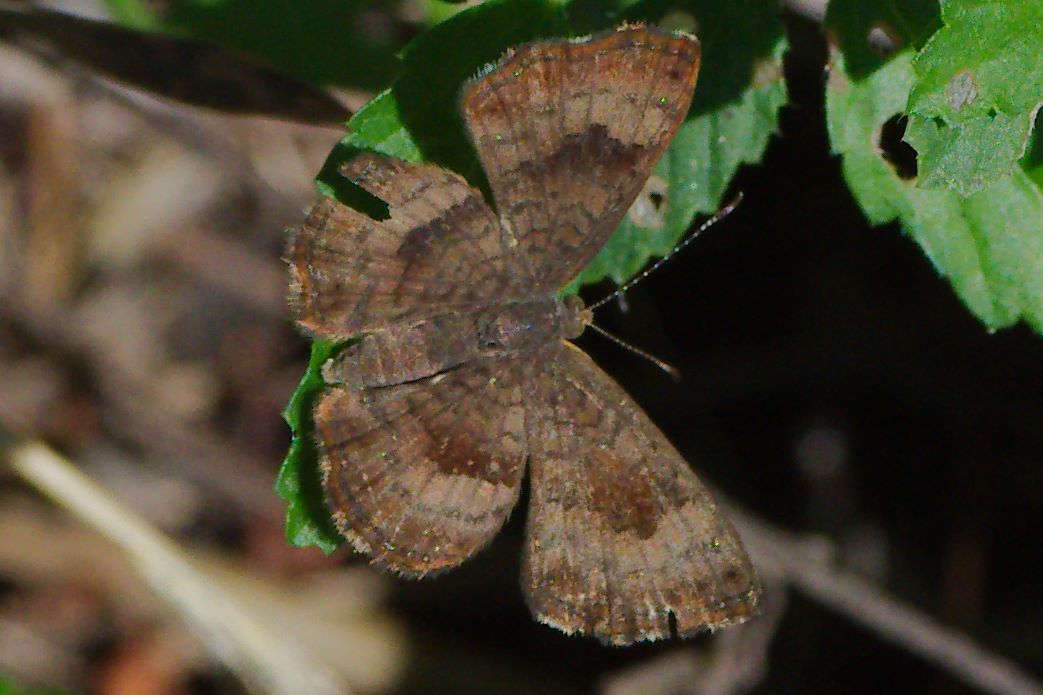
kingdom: Animalia
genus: Calephelis
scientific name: Calephelis nemesis
